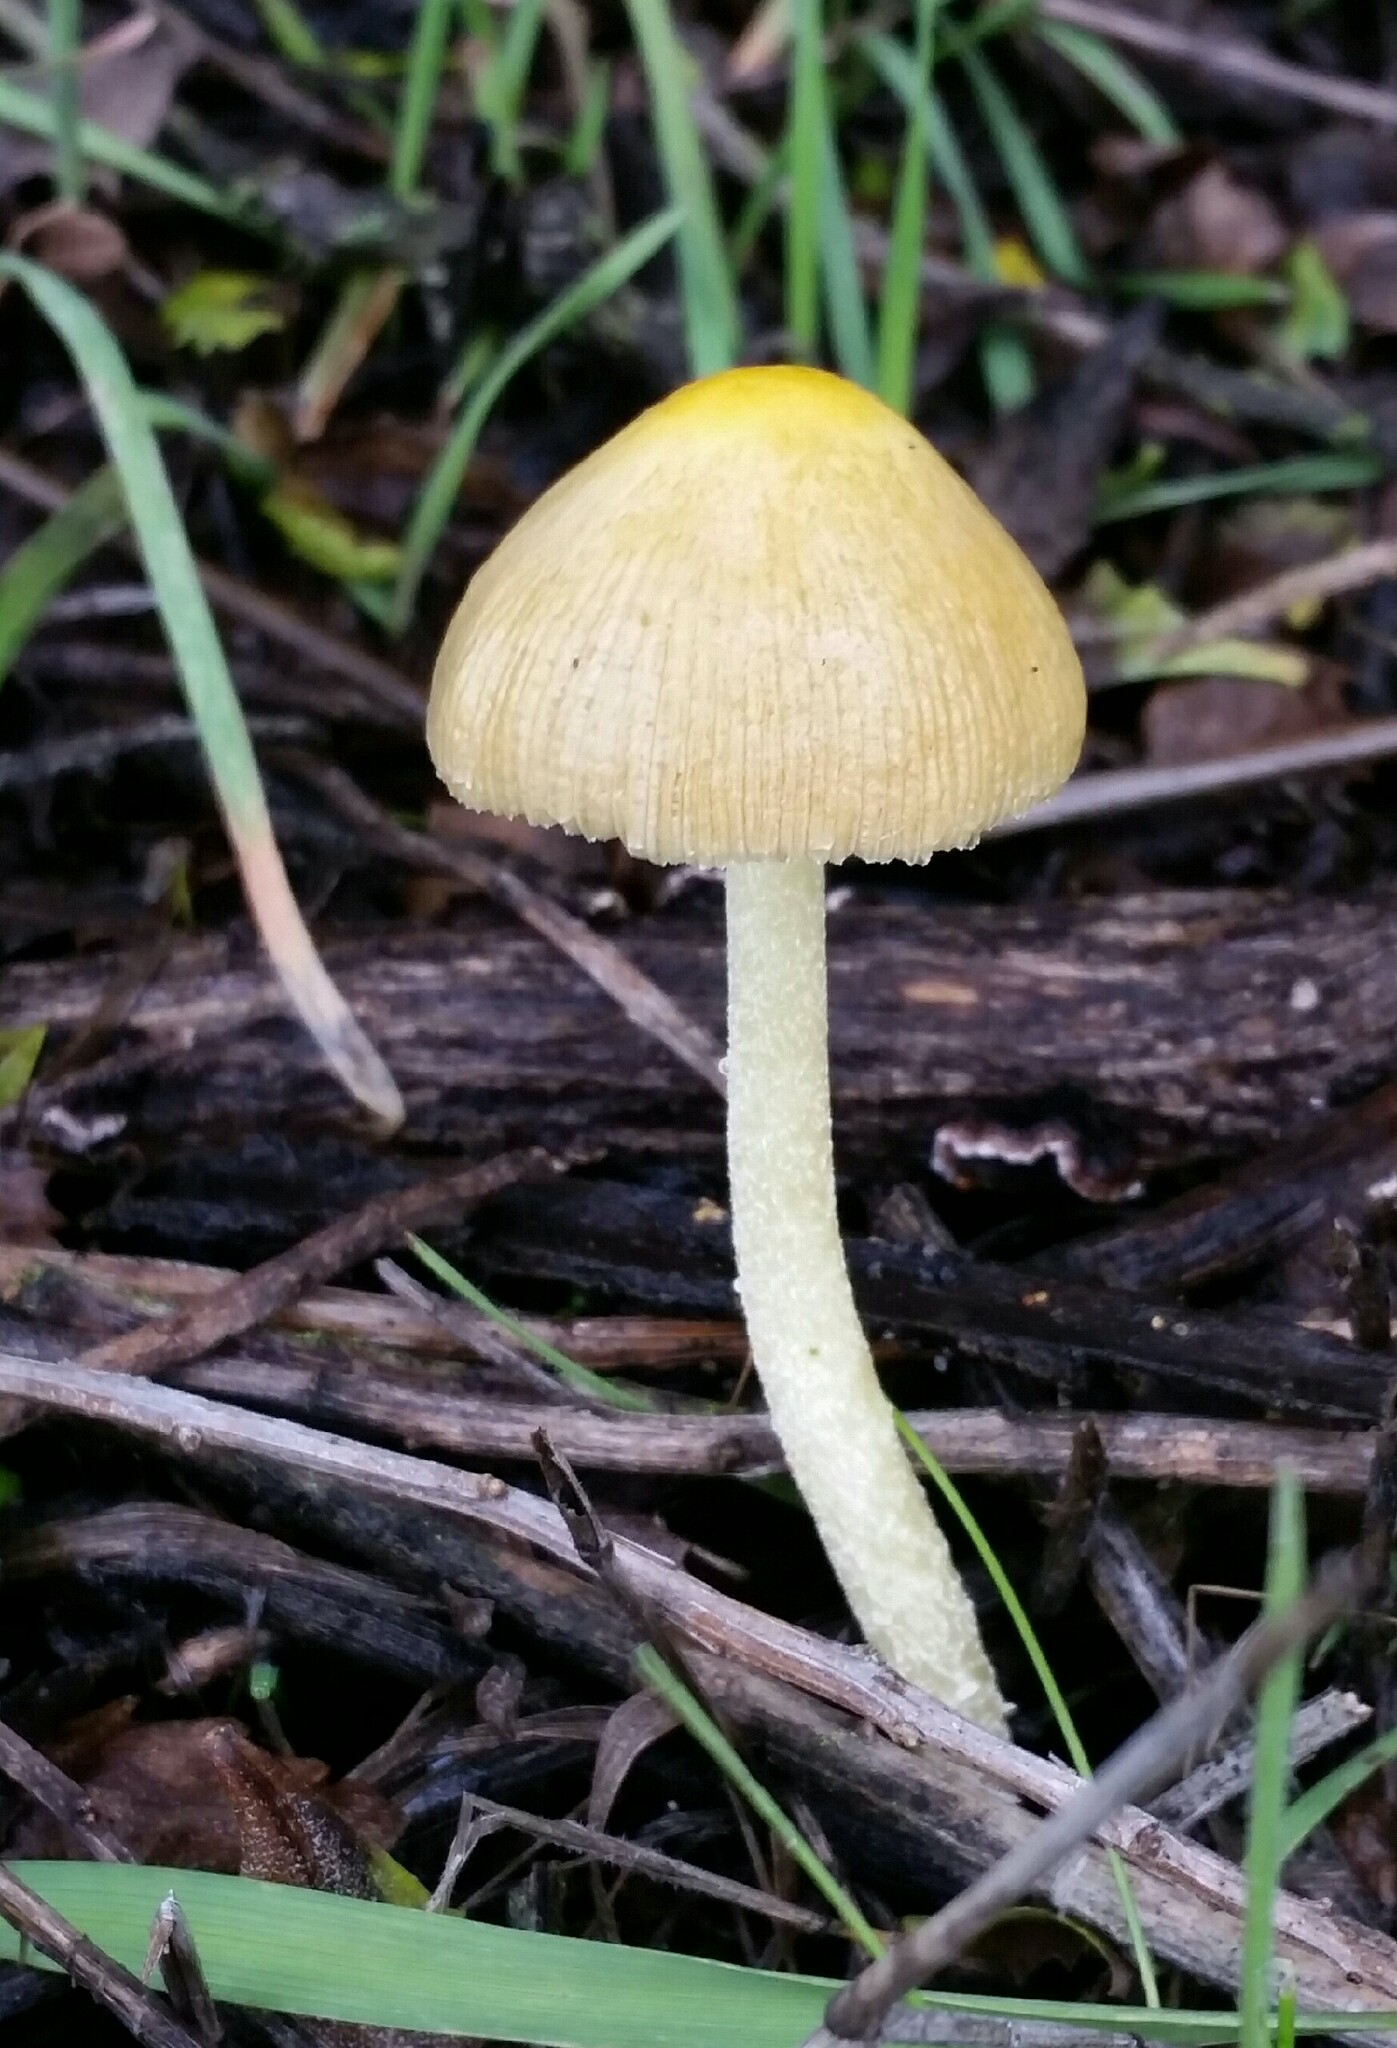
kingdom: Fungi
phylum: Basidiomycota
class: Agaricomycetes
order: Agaricales
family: Bolbitiaceae
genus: Bolbitius
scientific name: Bolbitius titubans
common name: Yellow fieldcap
